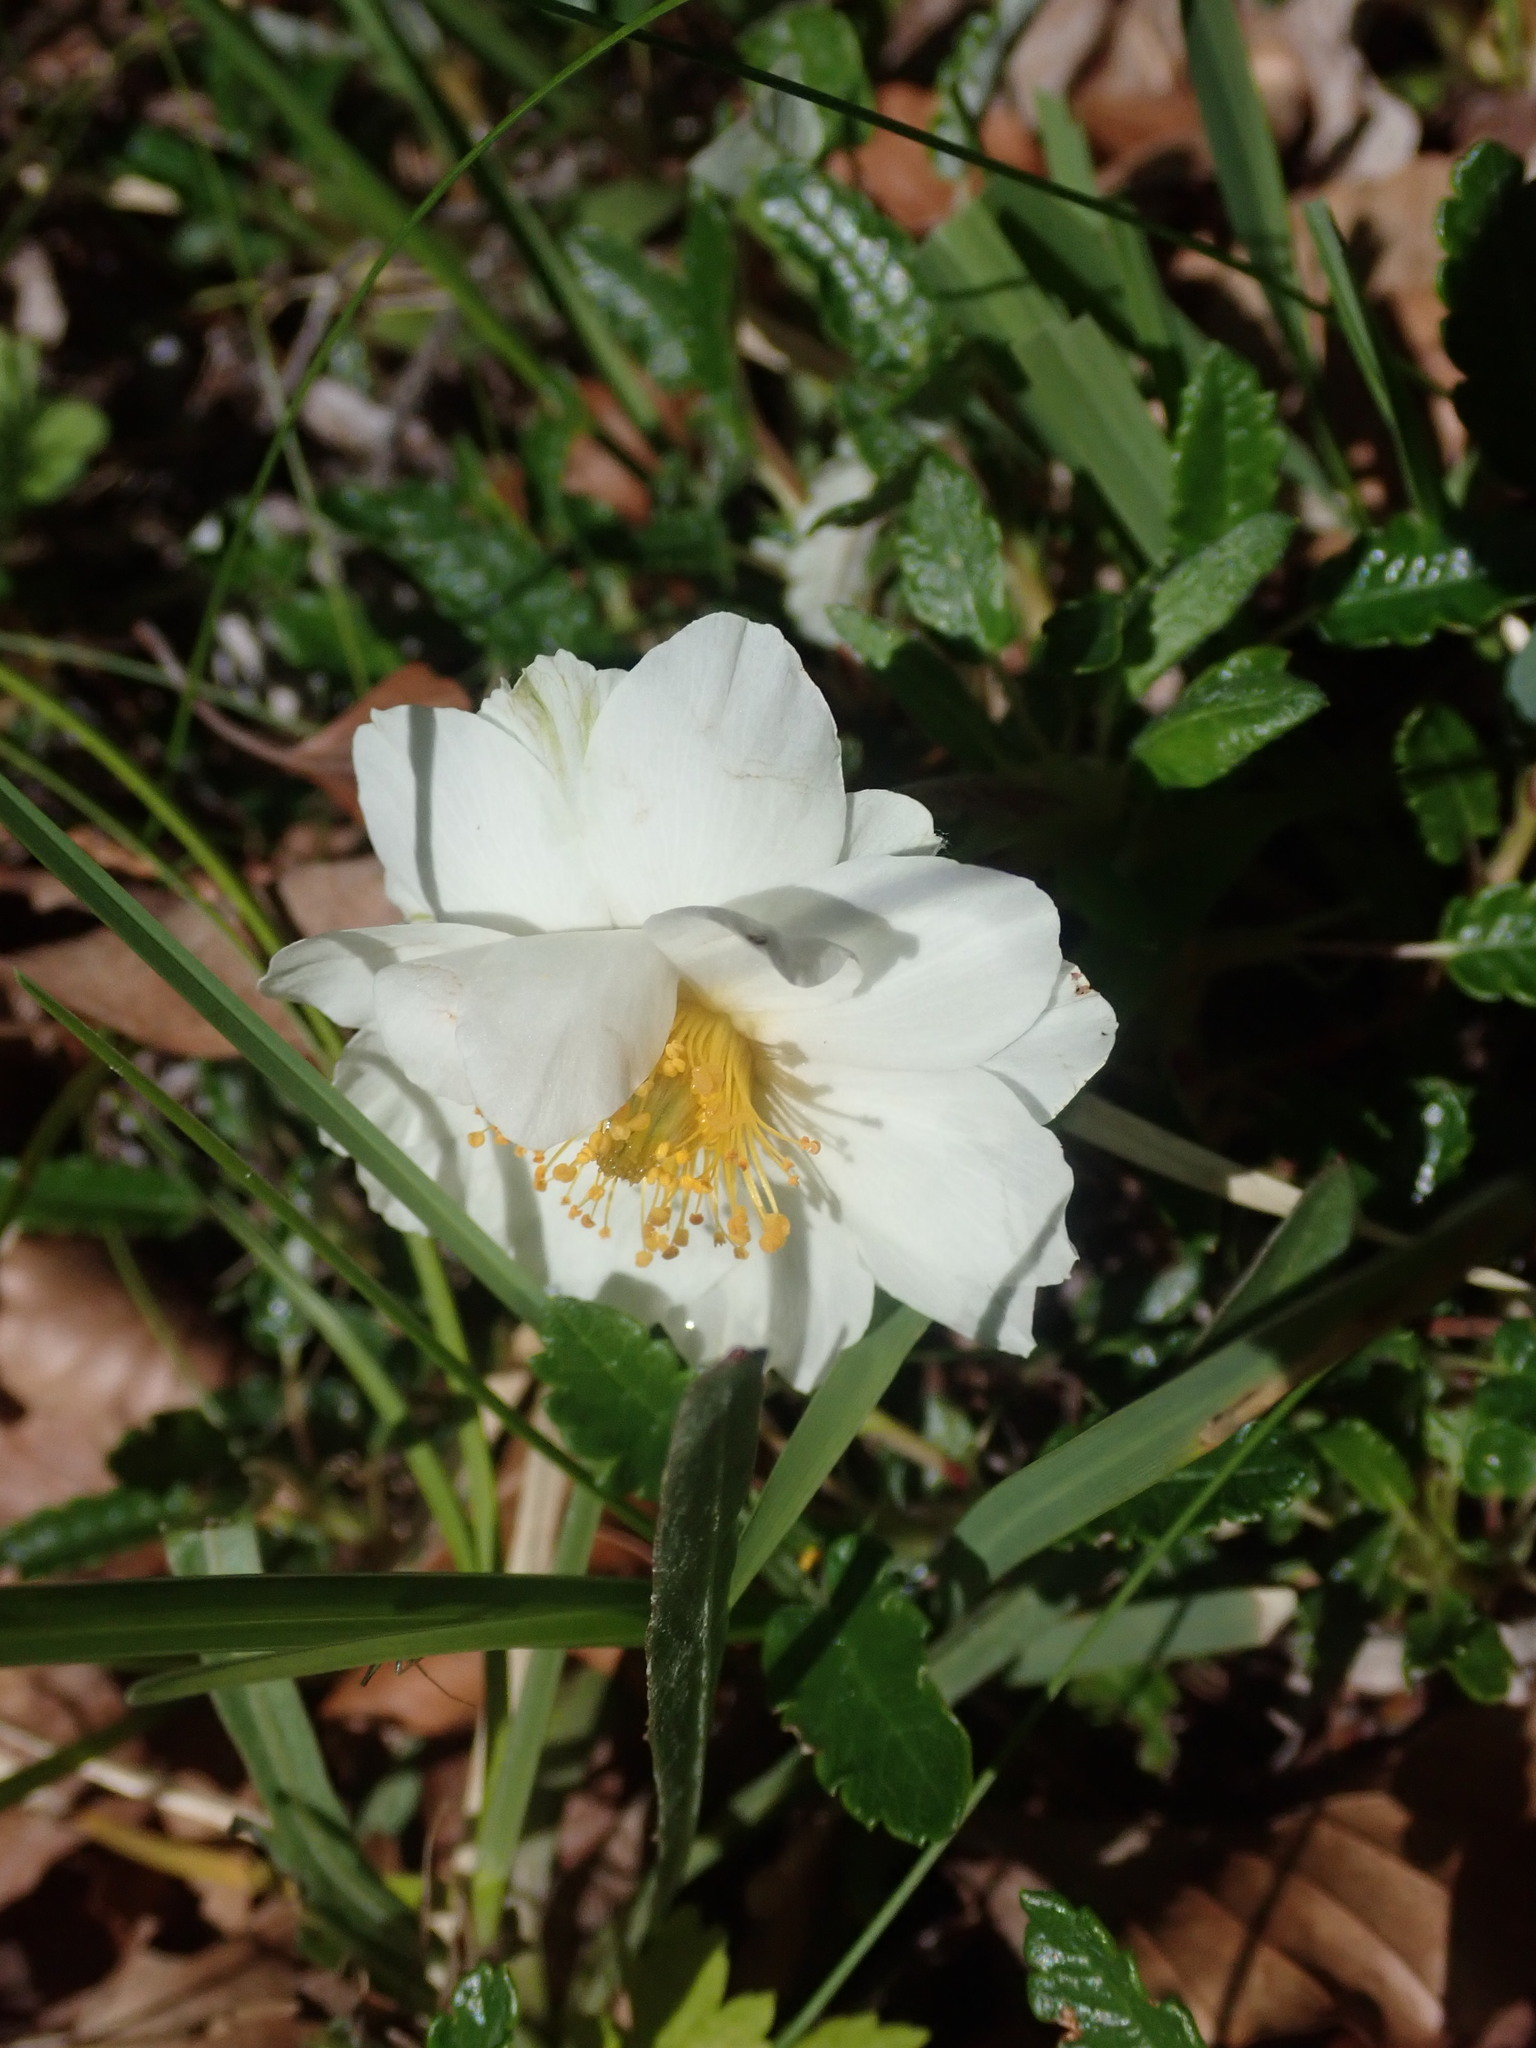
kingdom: Plantae
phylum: Tracheophyta
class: Magnoliopsida
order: Rosales
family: Rosaceae
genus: Dryas
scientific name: Dryas octopetala
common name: Eight-petal mountain-avens
